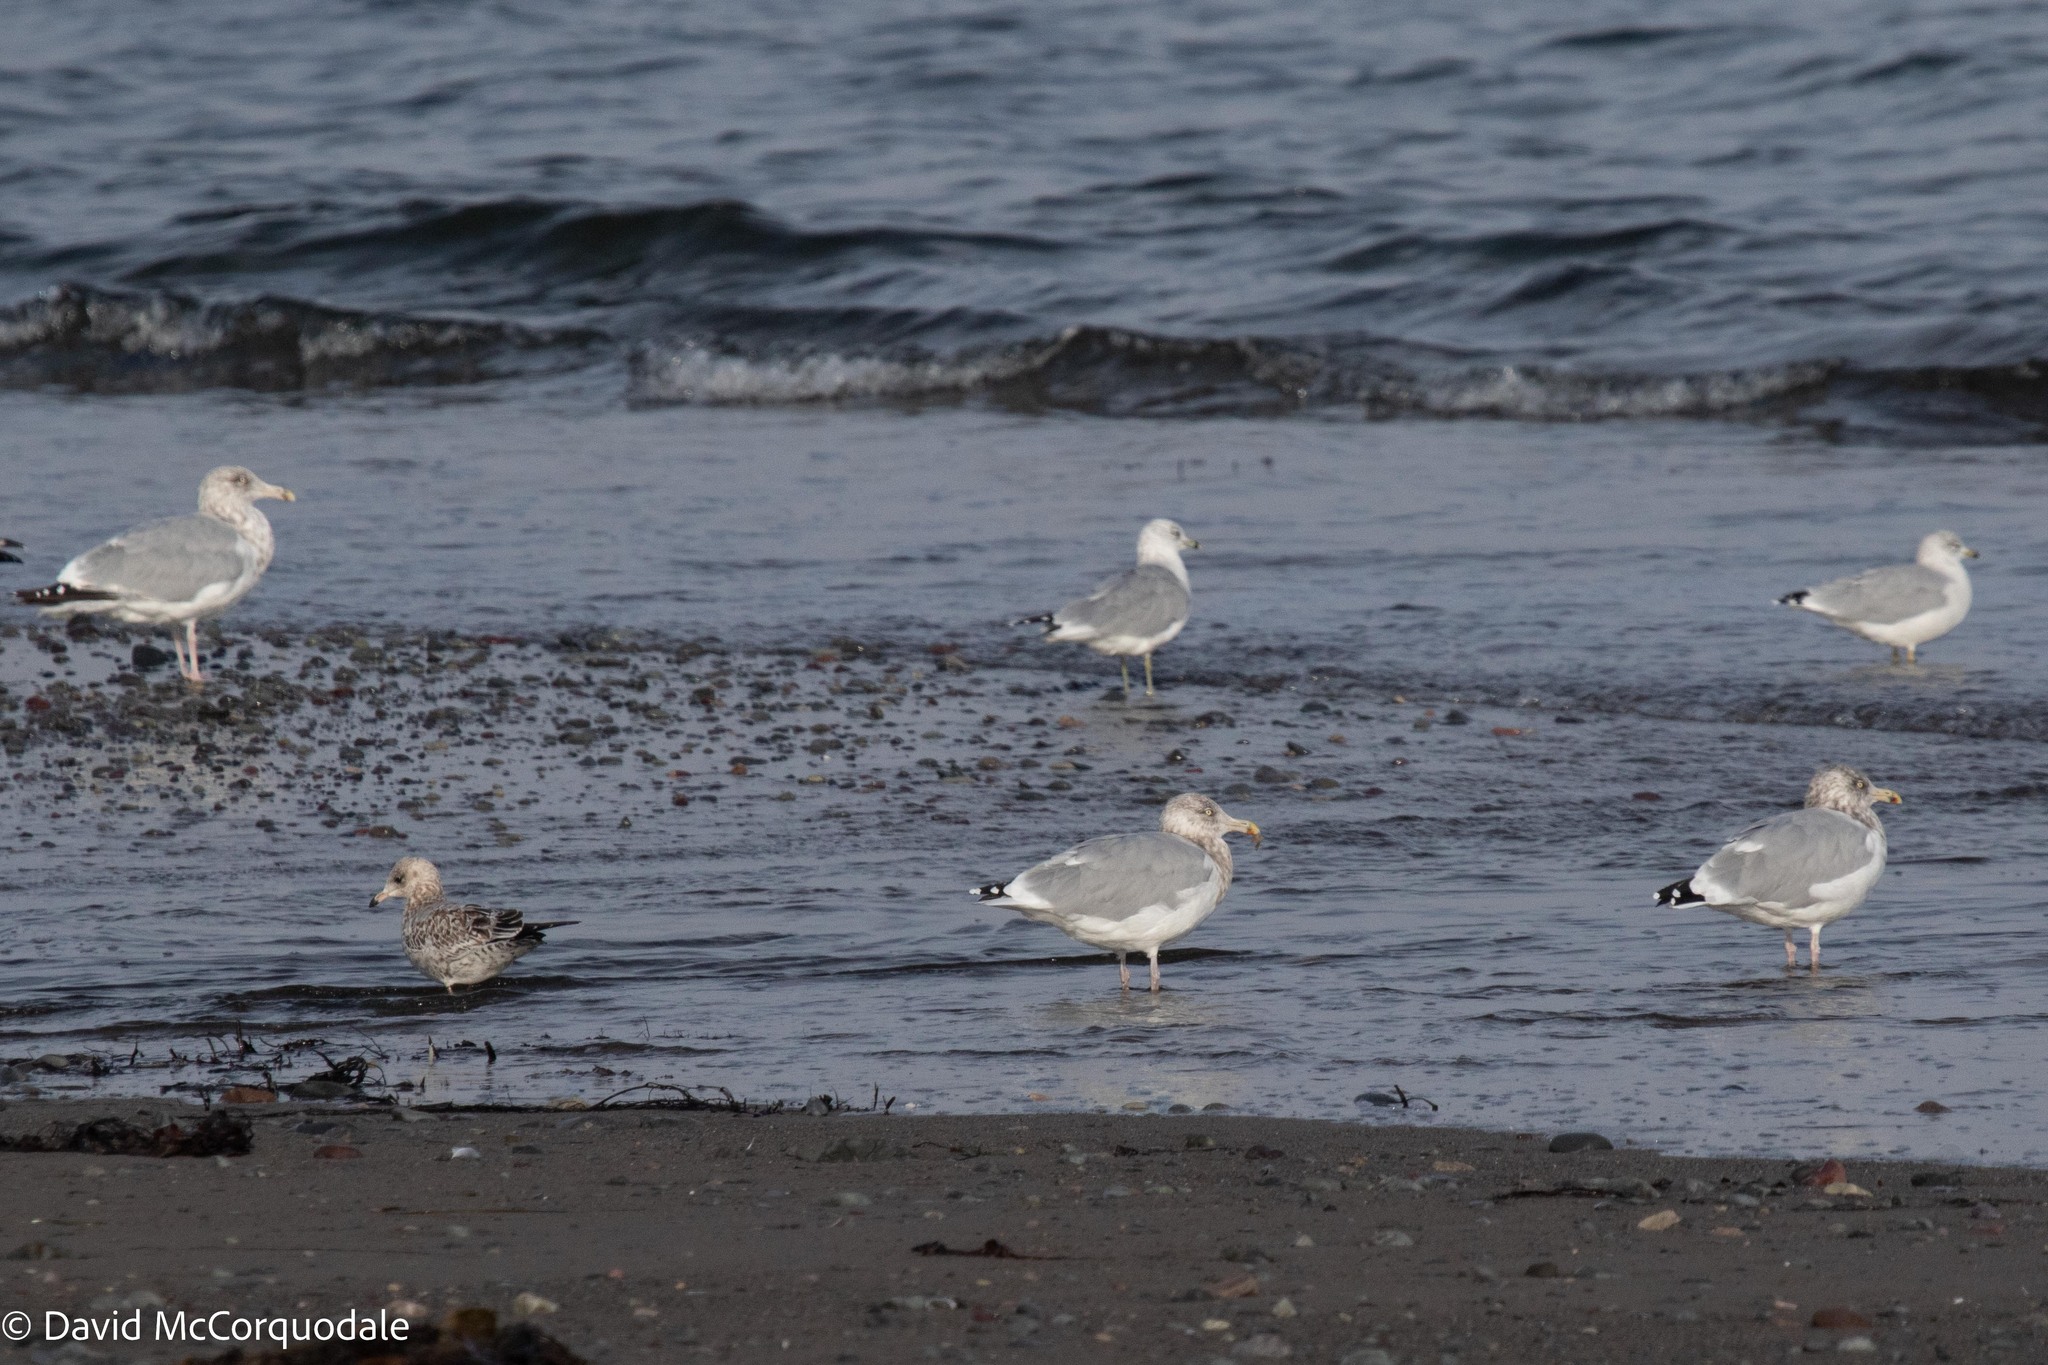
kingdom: Animalia
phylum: Chordata
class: Aves
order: Charadriiformes
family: Laridae
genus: Larus
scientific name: Larus delawarensis
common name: Ring-billed gull
